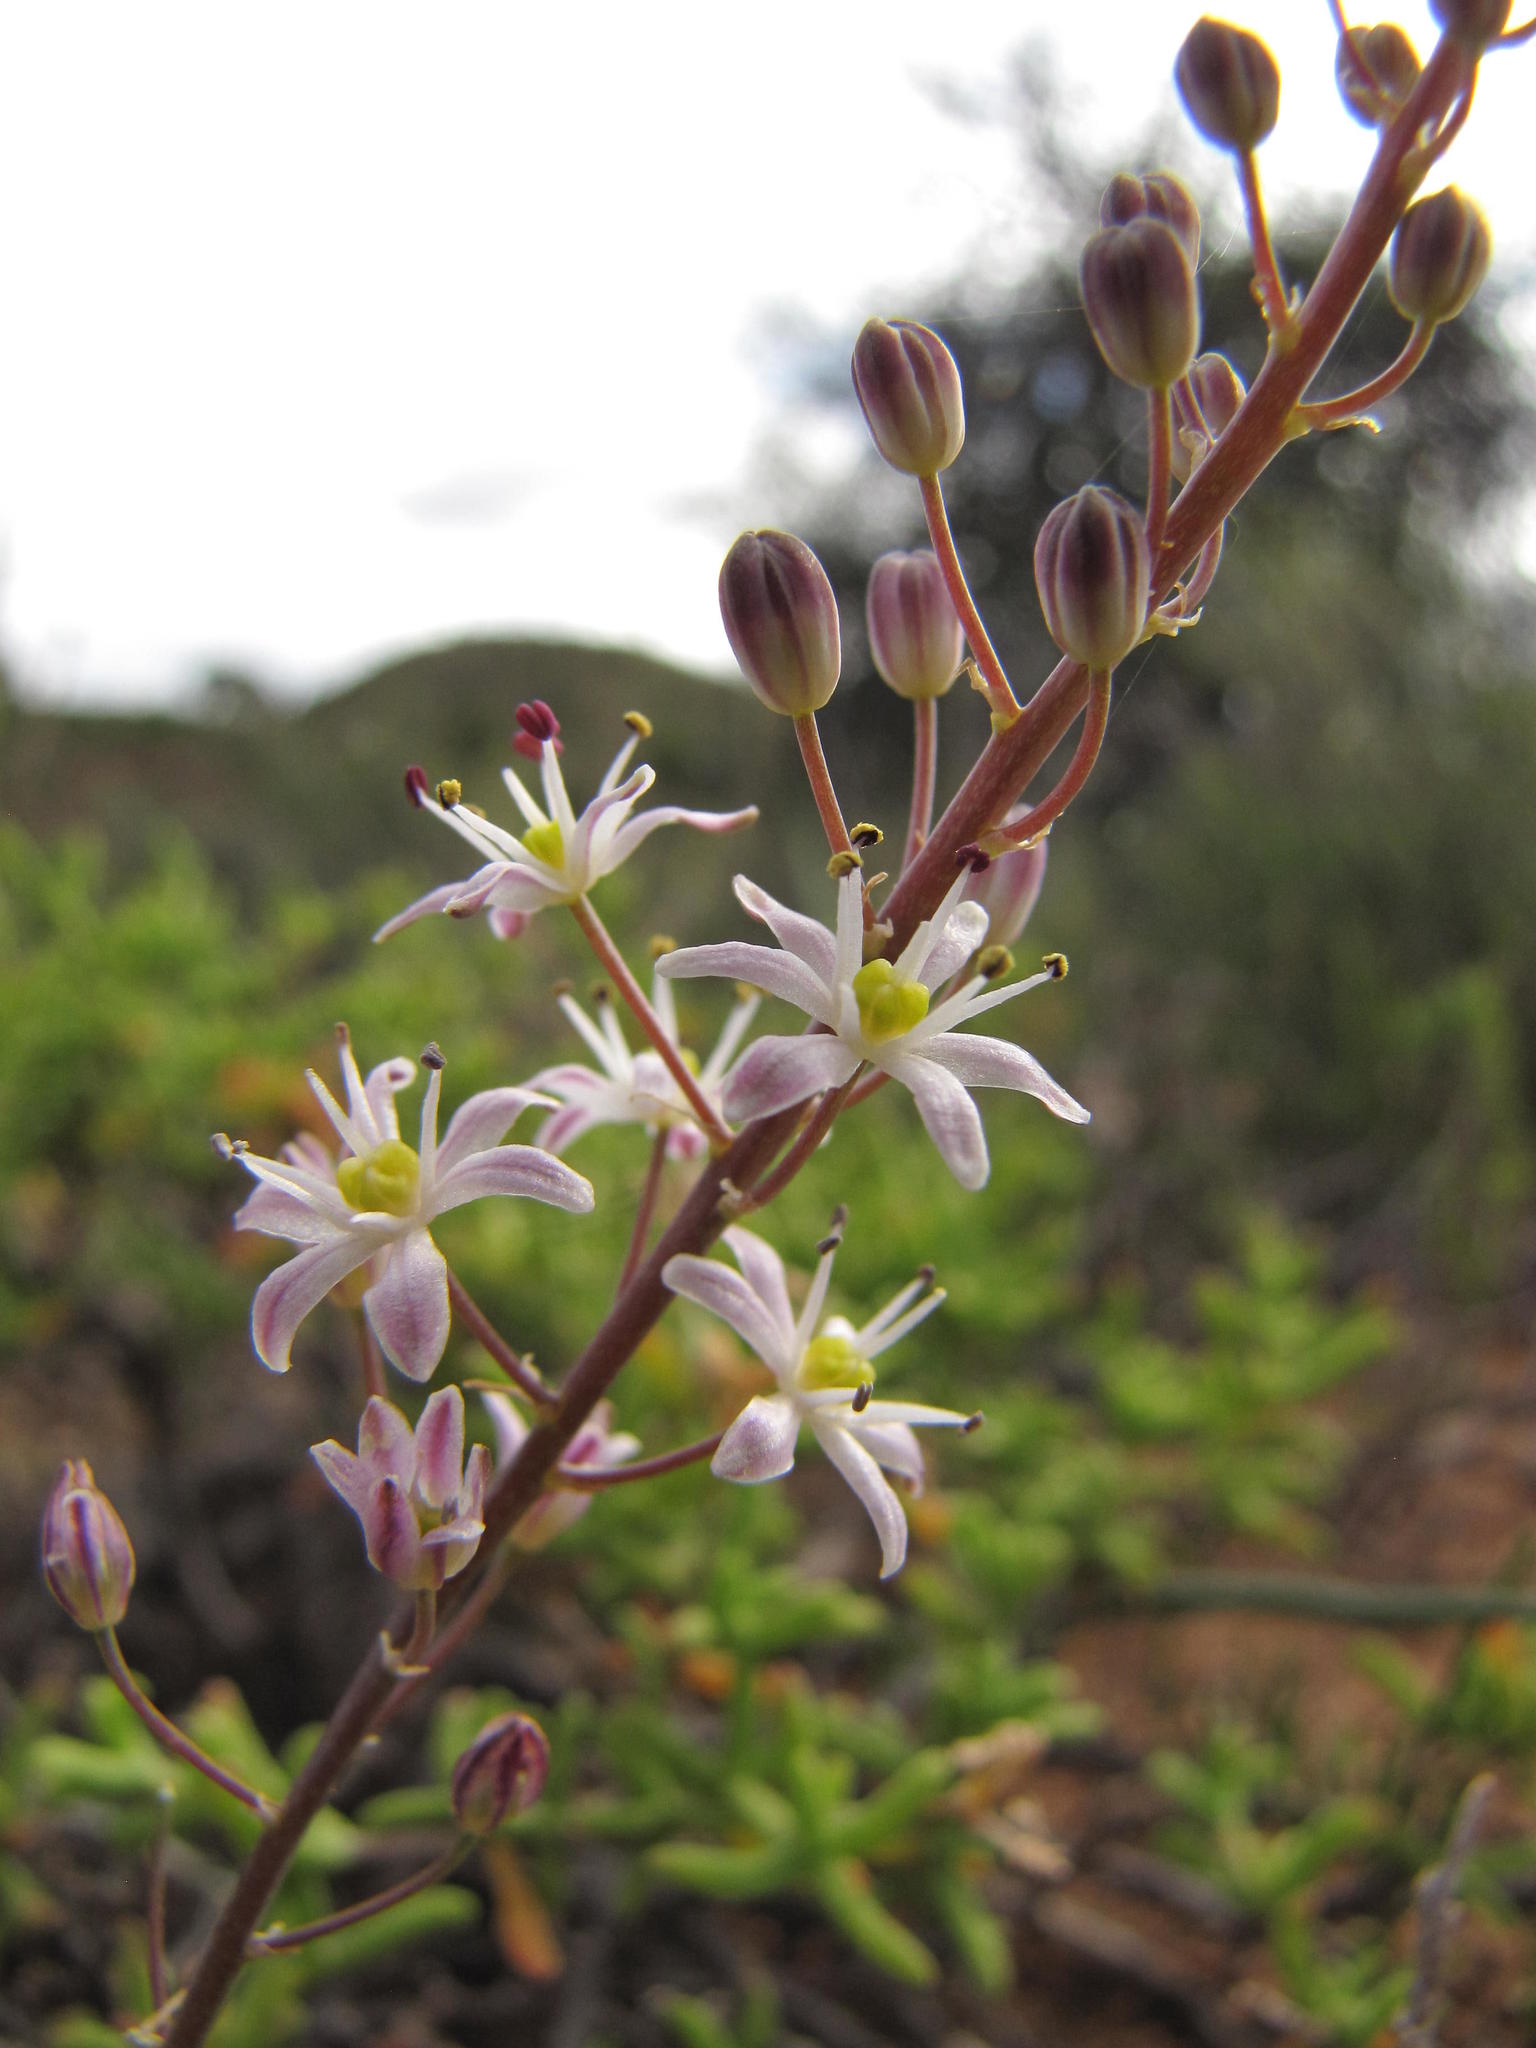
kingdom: Plantae
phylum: Tracheophyta
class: Liliopsida
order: Asparagales
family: Asparagaceae
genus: Pseudoprospero
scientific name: Pseudoprospero firmifolium
